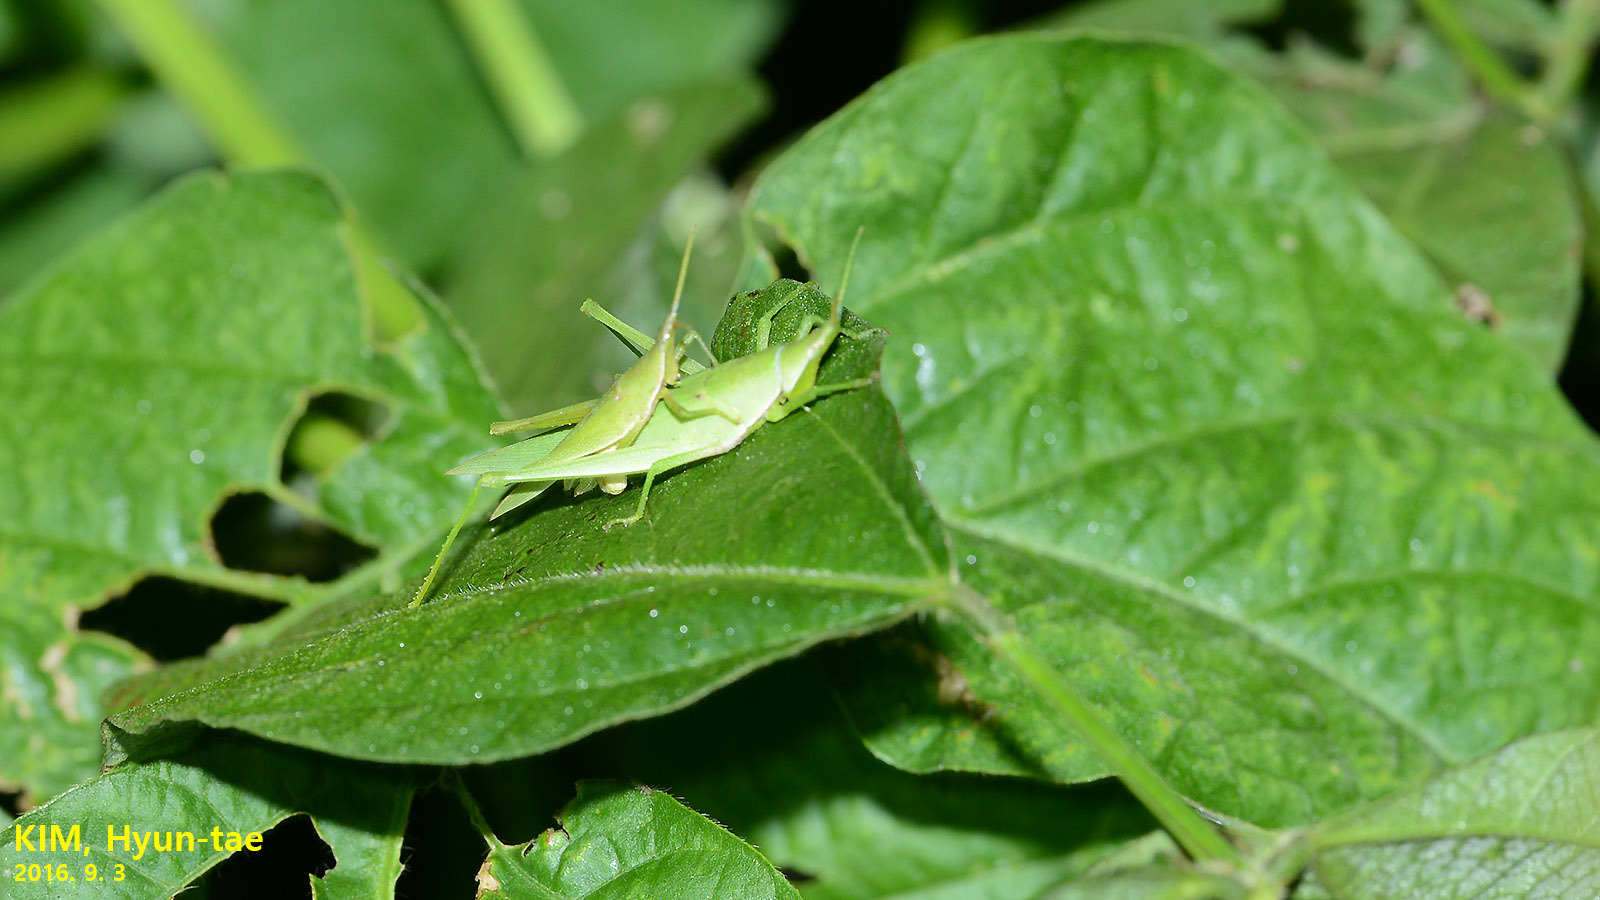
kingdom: Animalia
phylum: Arthropoda
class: Insecta
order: Orthoptera
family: Pyrgomorphidae
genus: Atractomorpha
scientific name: Atractomorpha lata
